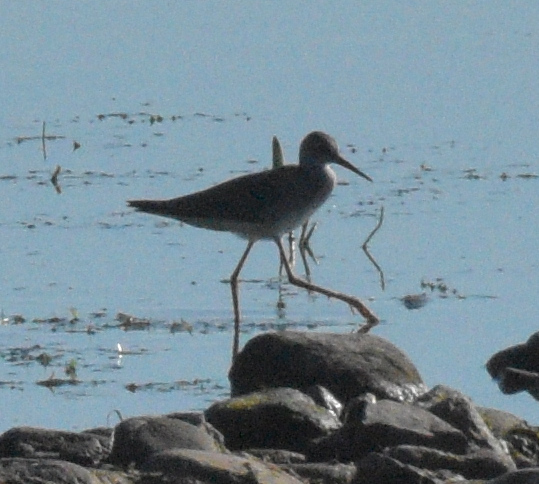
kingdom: Animalia
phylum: Chordata
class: Aves
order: Charadriiformes
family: Scolopacidae
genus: Tringa
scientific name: Tringa flavipes
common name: Lesser yellowlegs
